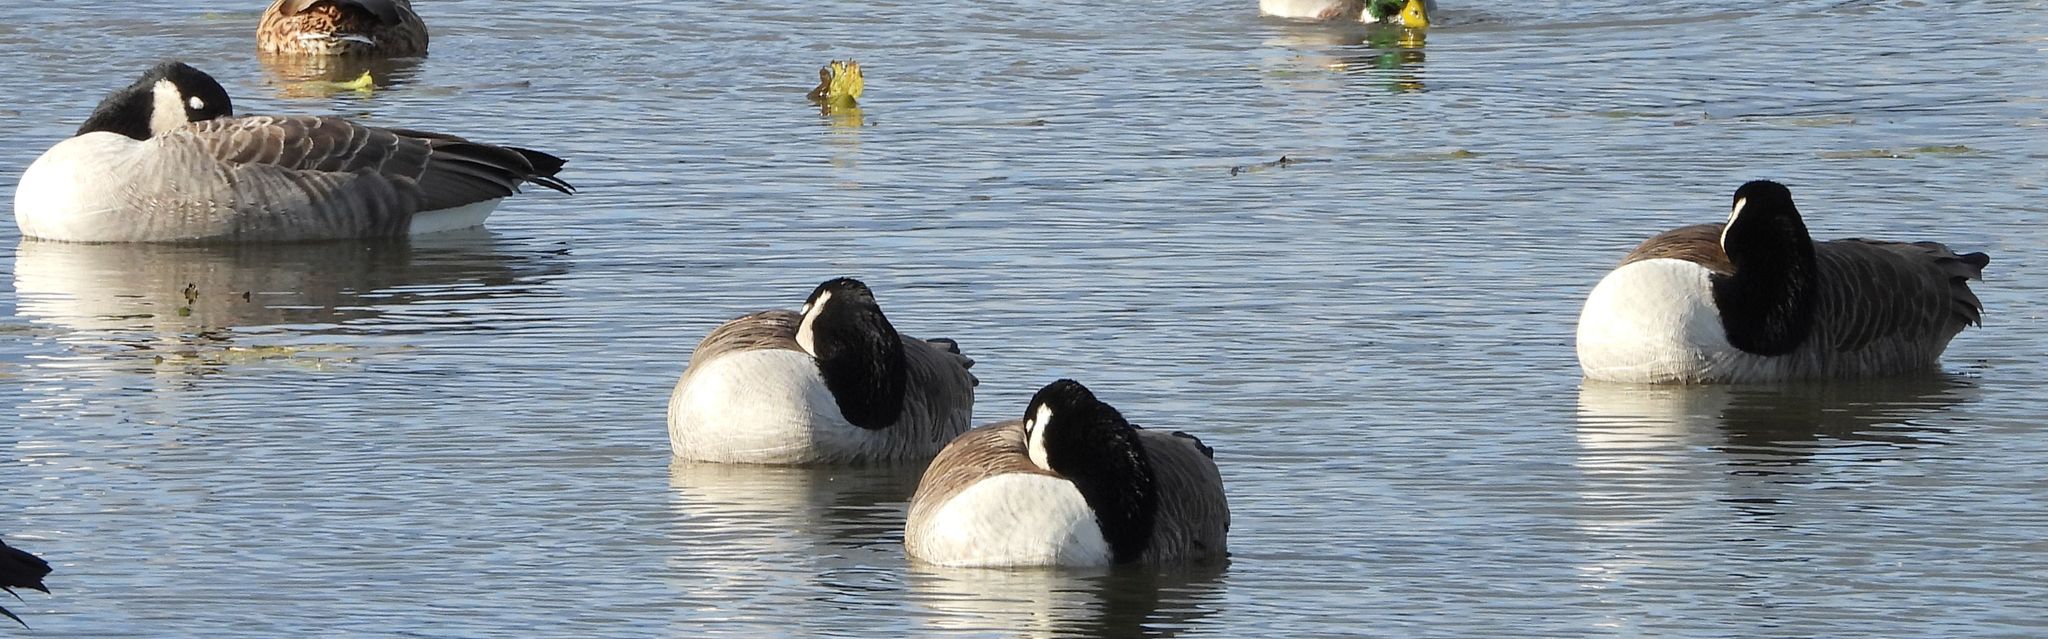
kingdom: Animalia
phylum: Chordata
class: Aves
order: Anseriformes
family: Anatidae
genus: Branta
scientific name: Branta canadensis
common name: Canada goose
